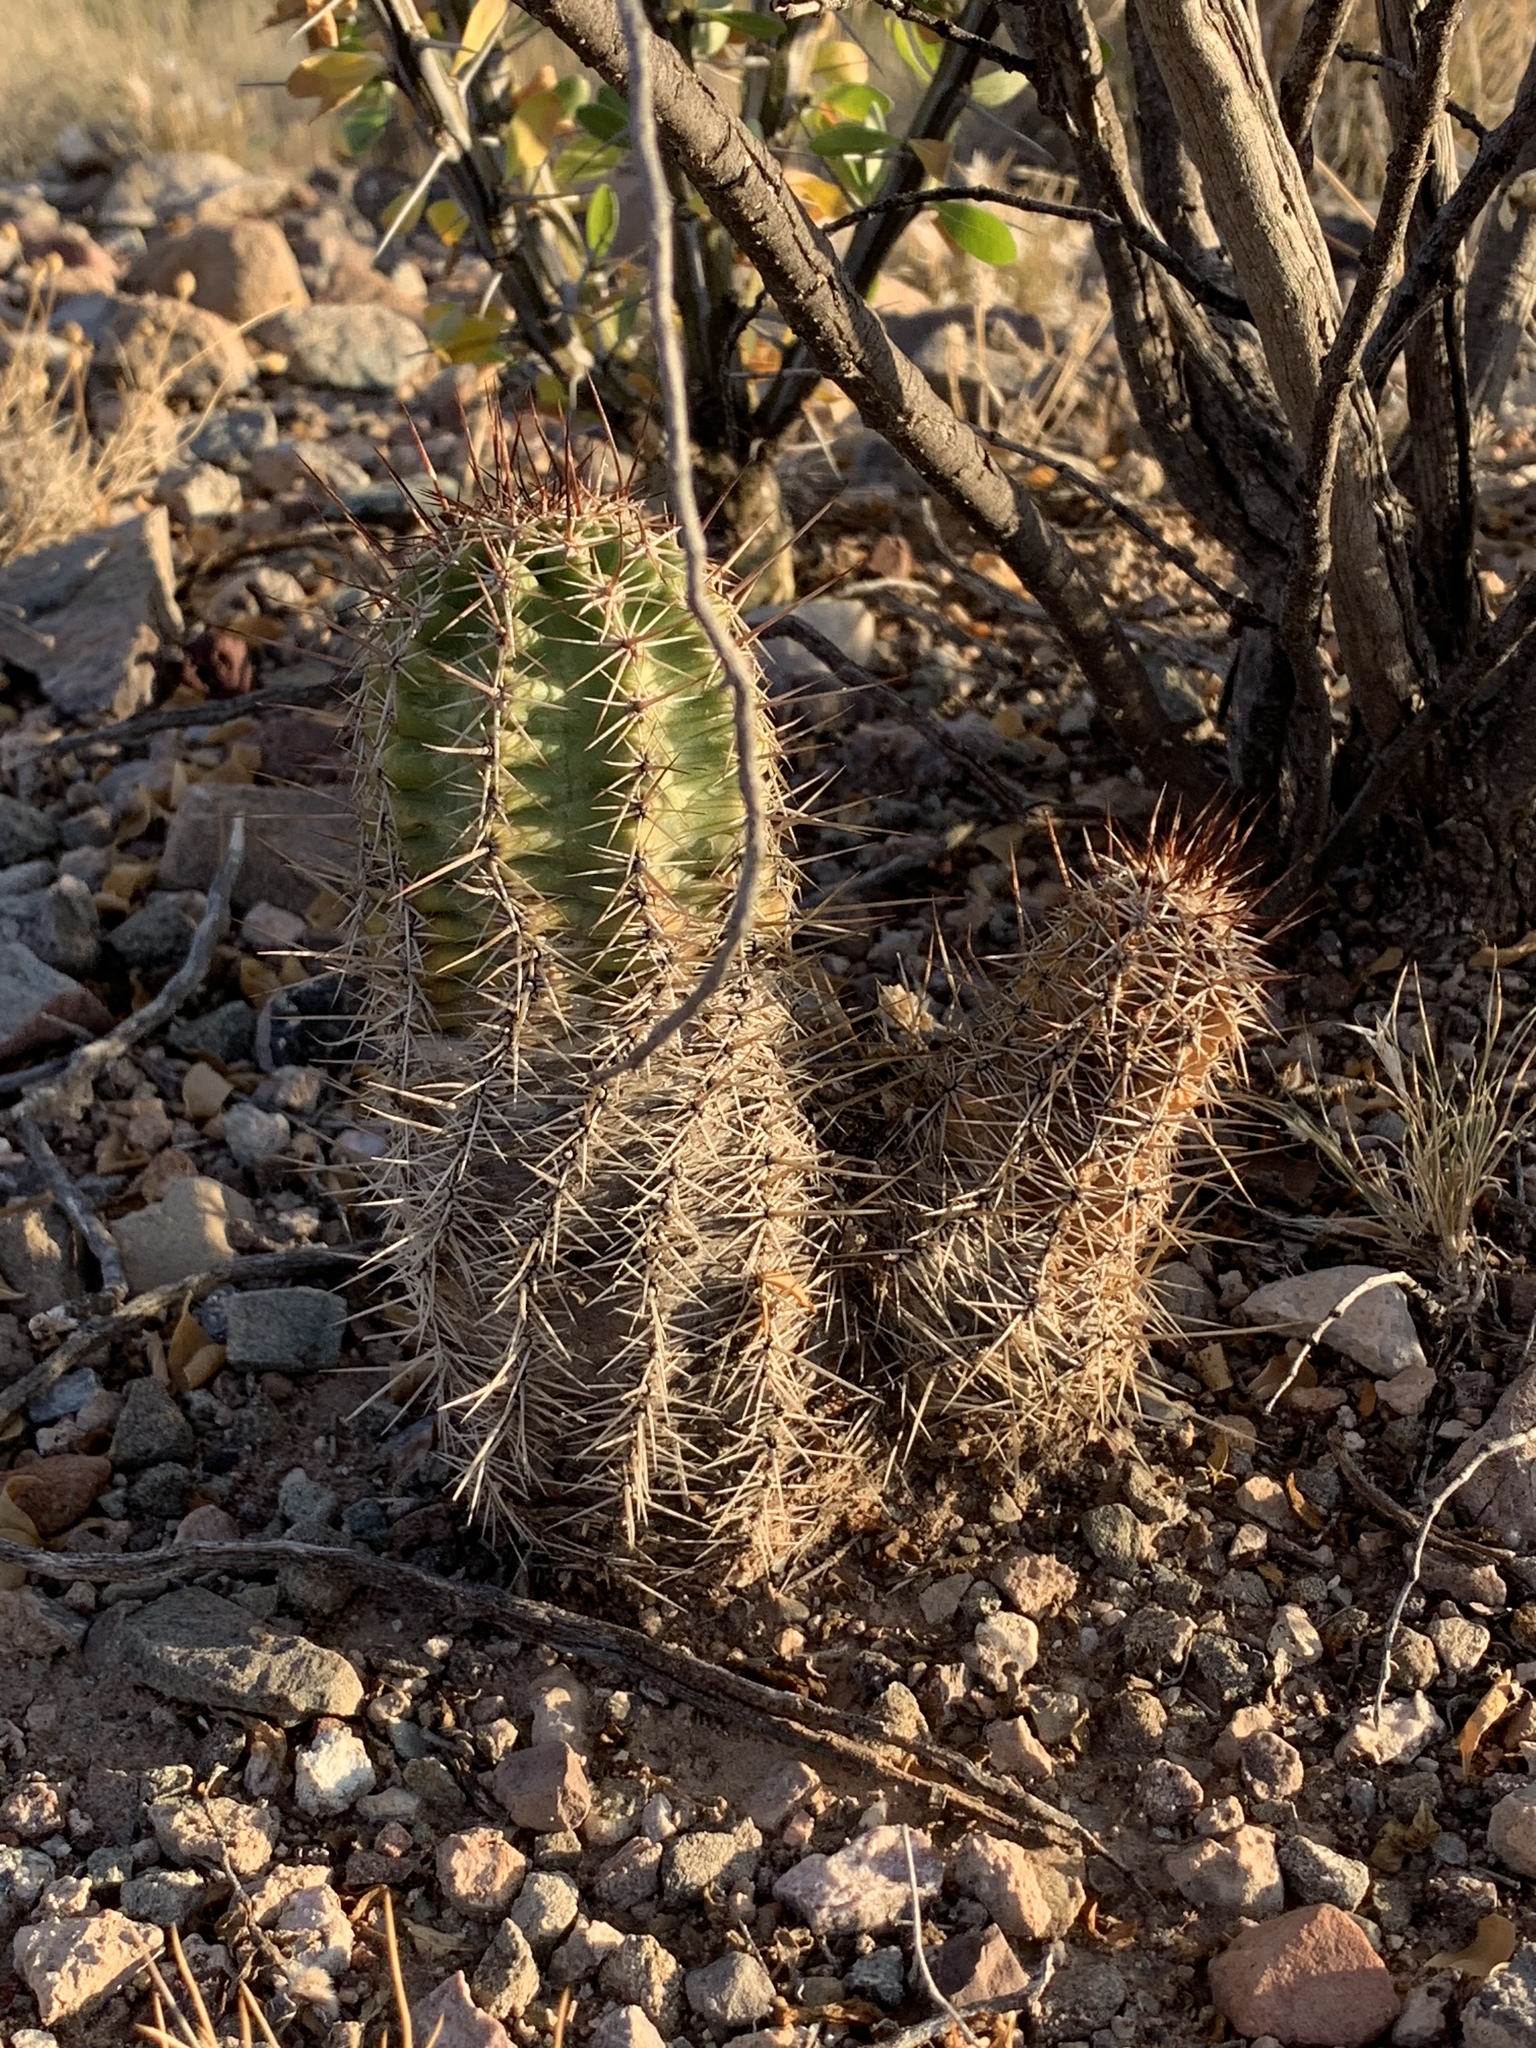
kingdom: Plantae
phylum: Tracheophyta
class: Magnoliopsida
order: Caryophyllales
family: Cactaceae
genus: Echinocereus
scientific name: Echinocereus fasciculatus
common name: Bundle hedgehog
